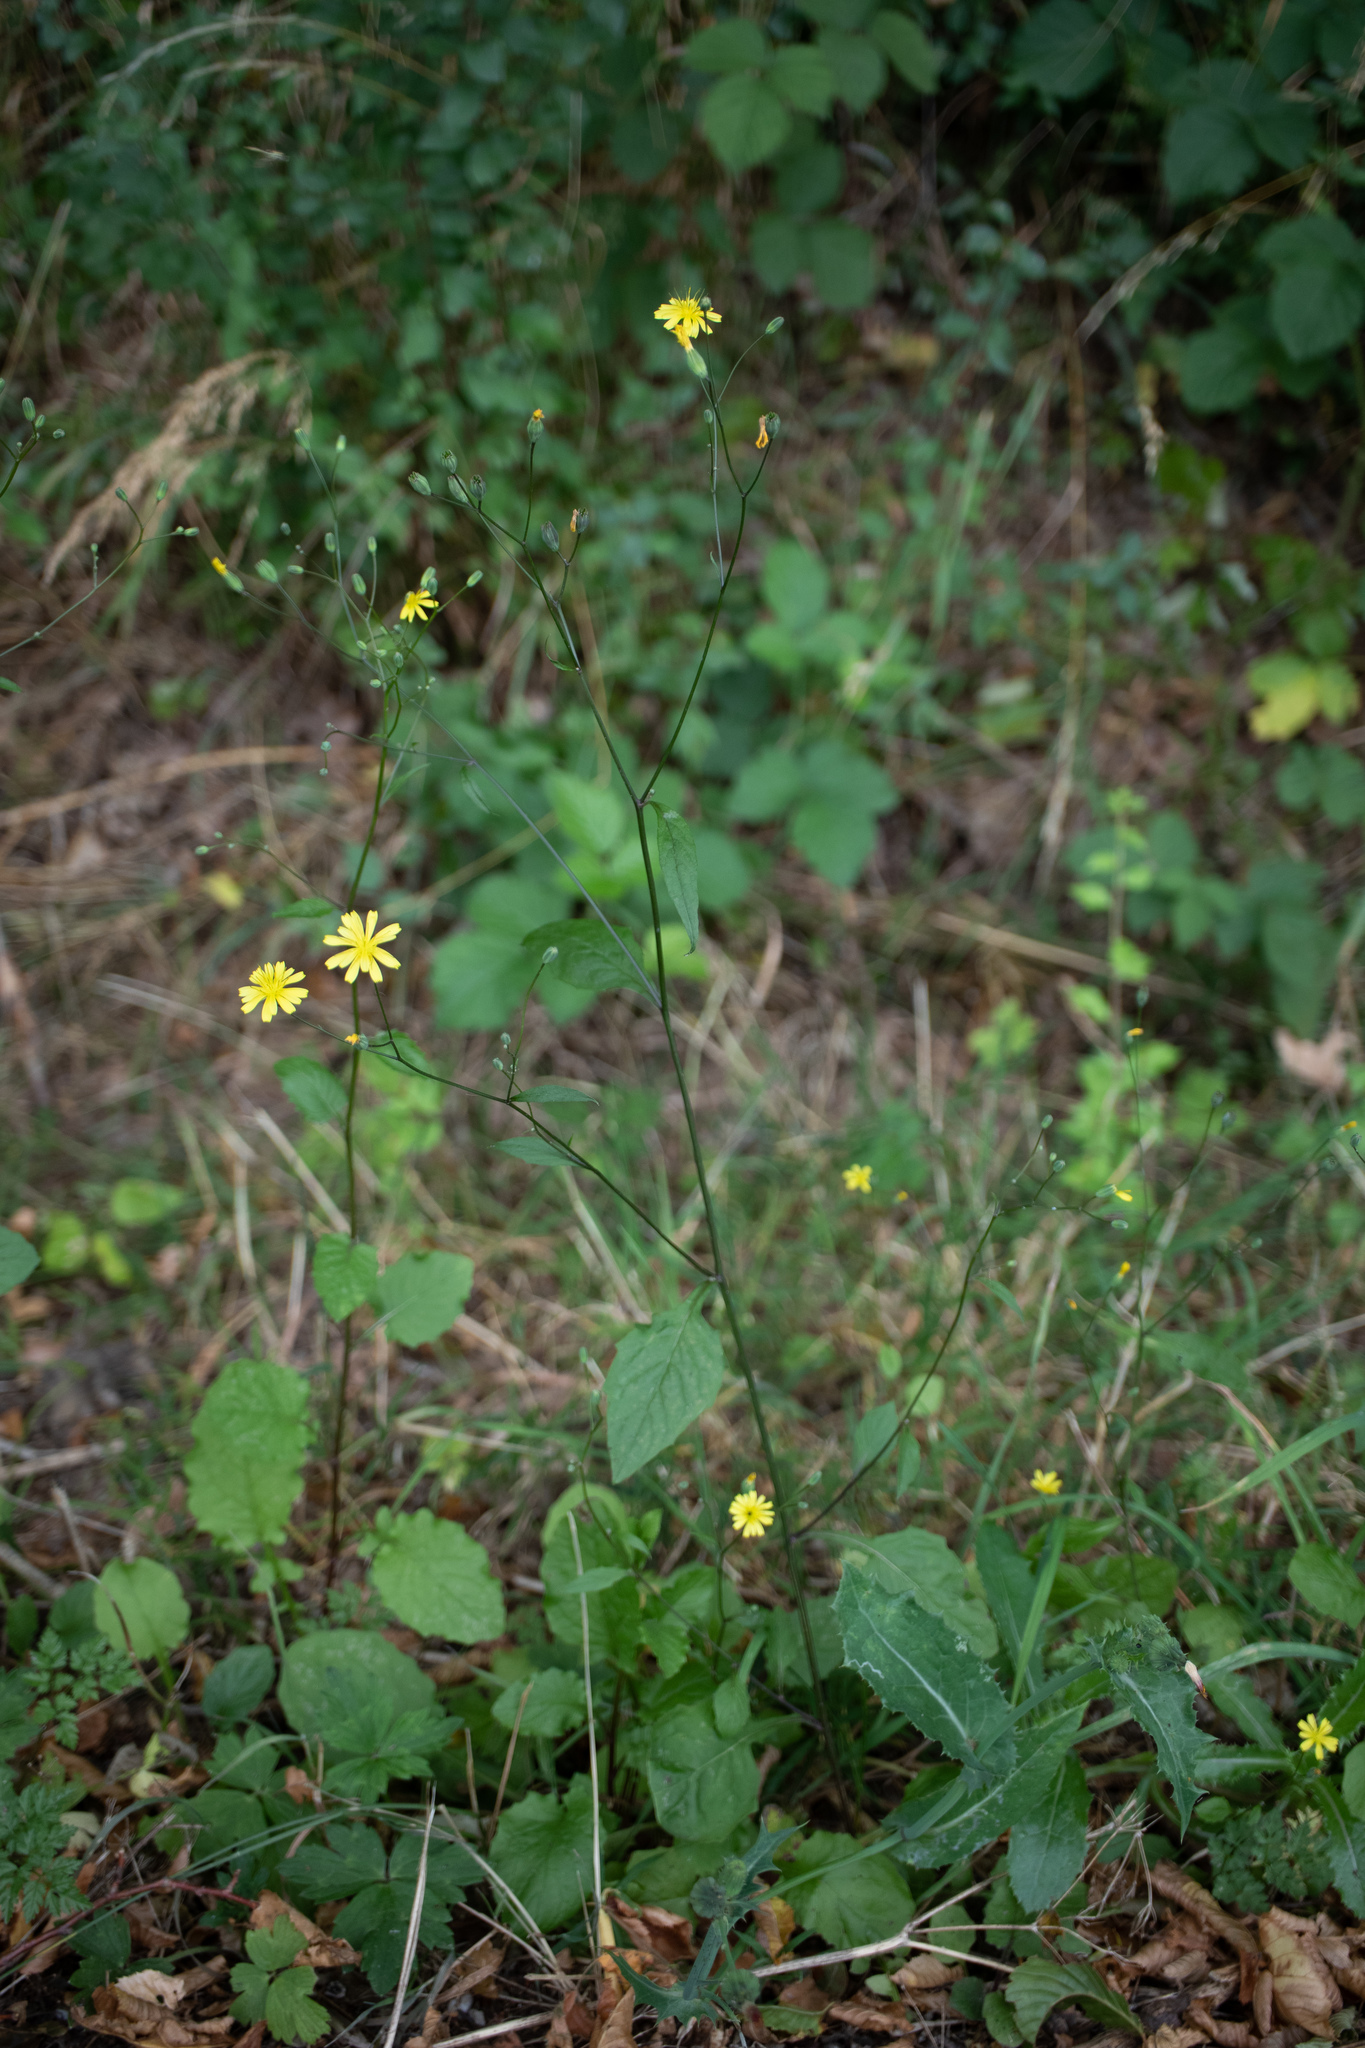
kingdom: Plantae
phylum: Tracheophyta
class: Magnoliopsida
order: Asterales
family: Asteraceae
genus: Lapsana
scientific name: Lapsana communis
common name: Nipplewort
